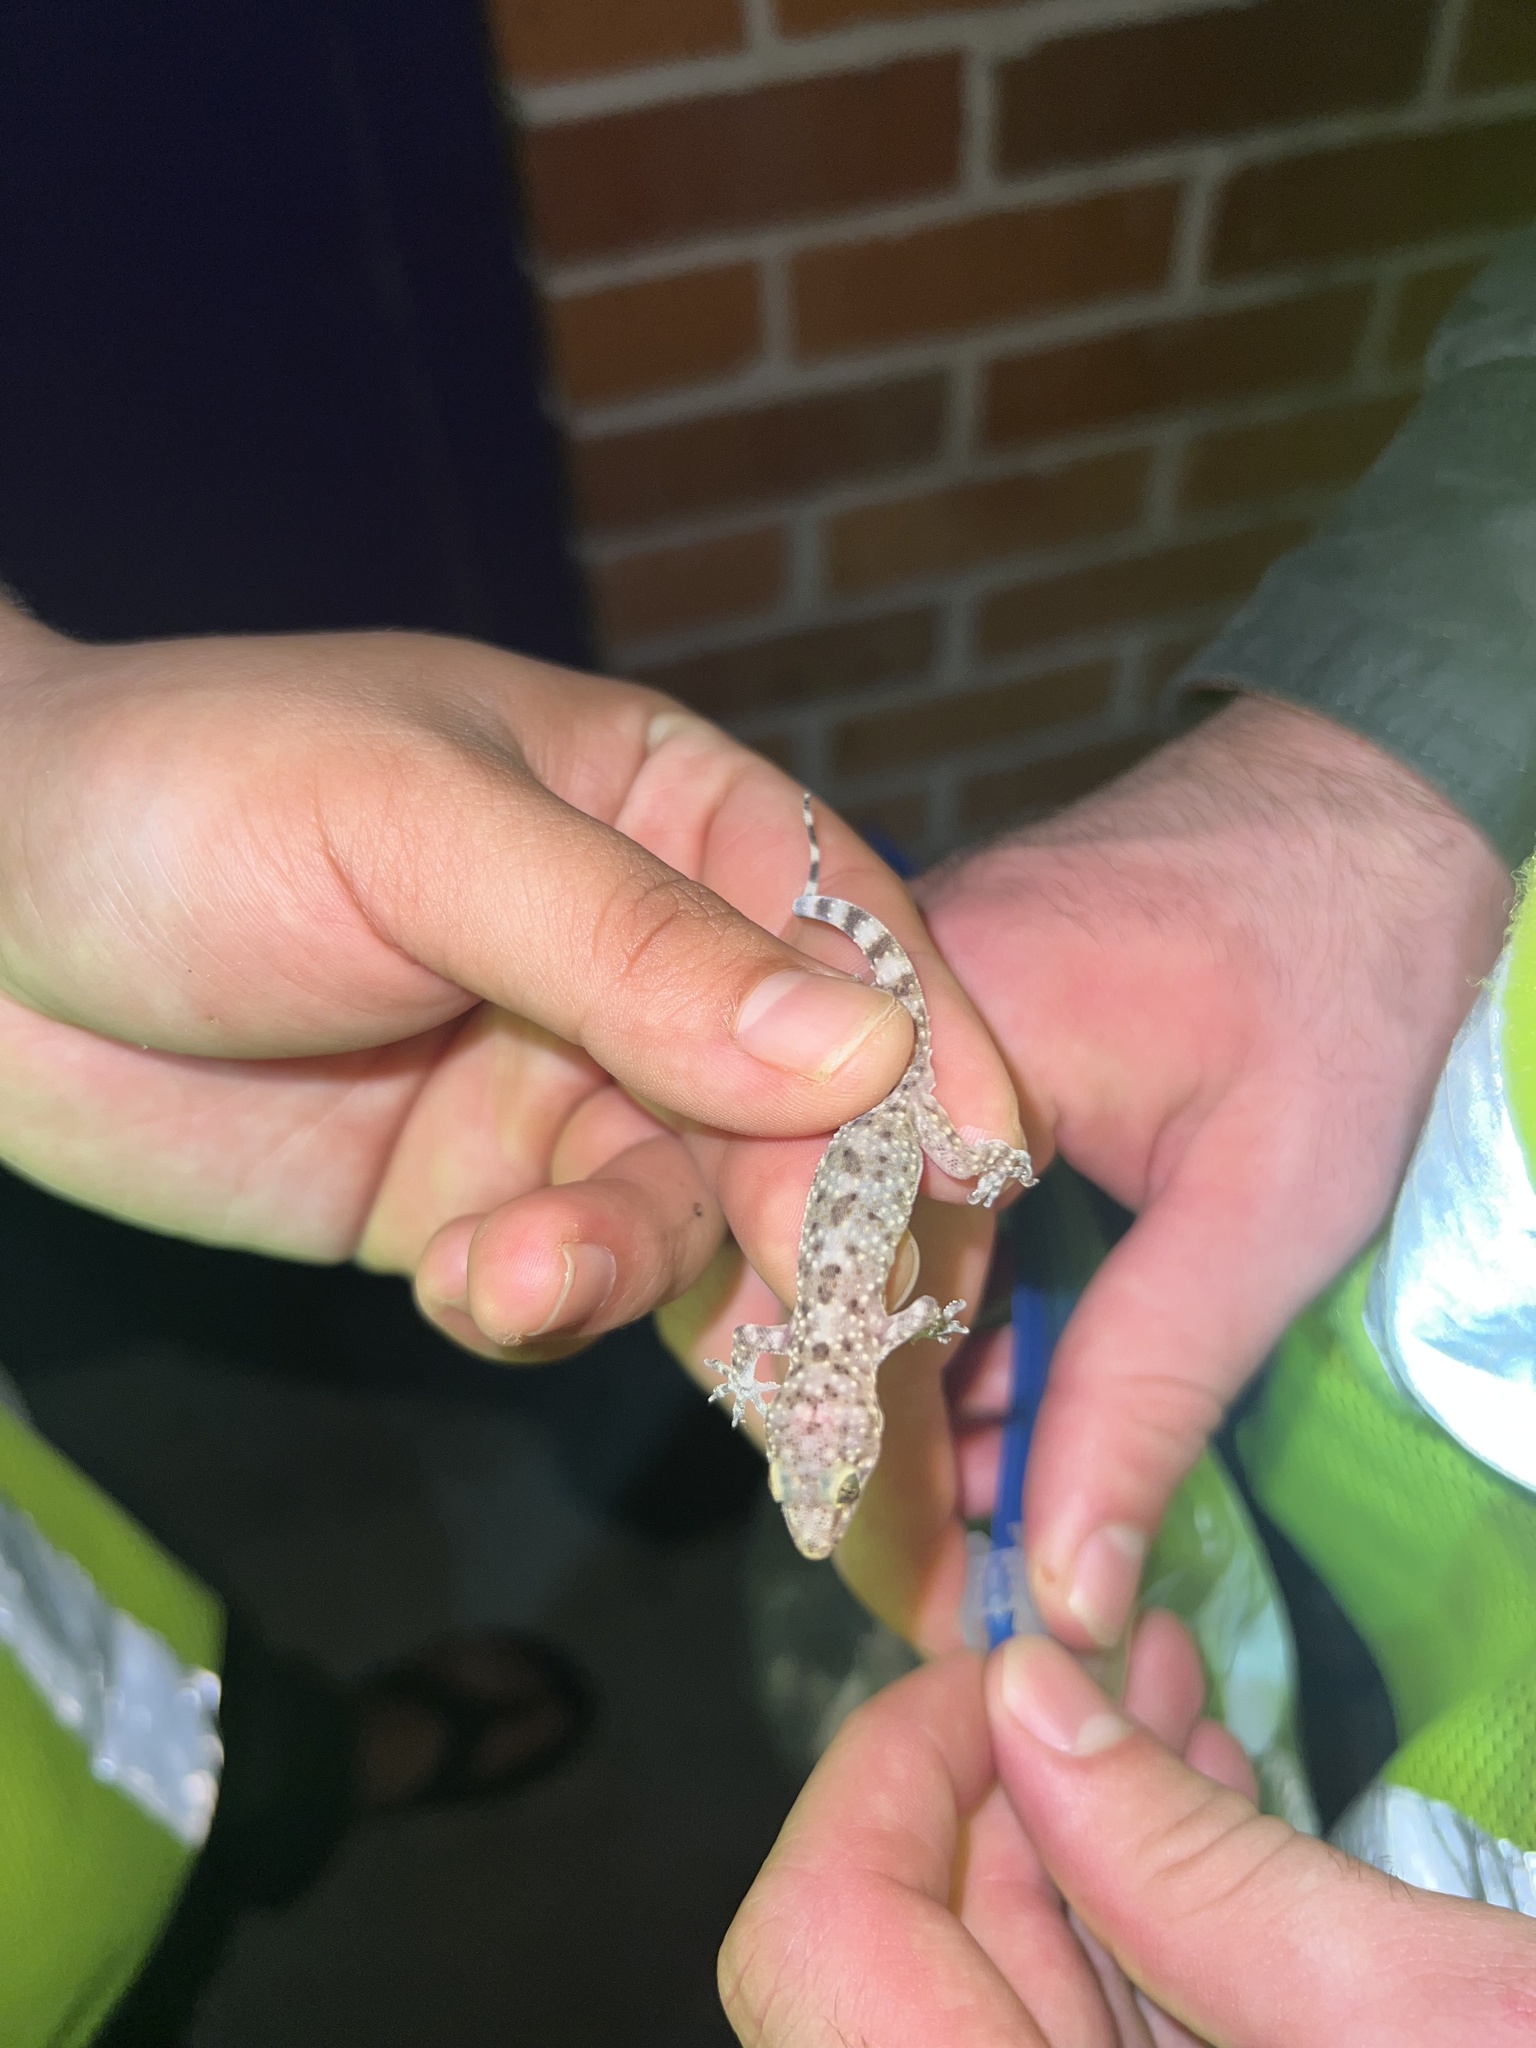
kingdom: Animalia
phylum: Chordata
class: Squamata
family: Gekkonidae
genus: Hemidactylus
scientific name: Hemidactylus turcicus
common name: Turkish gecko
